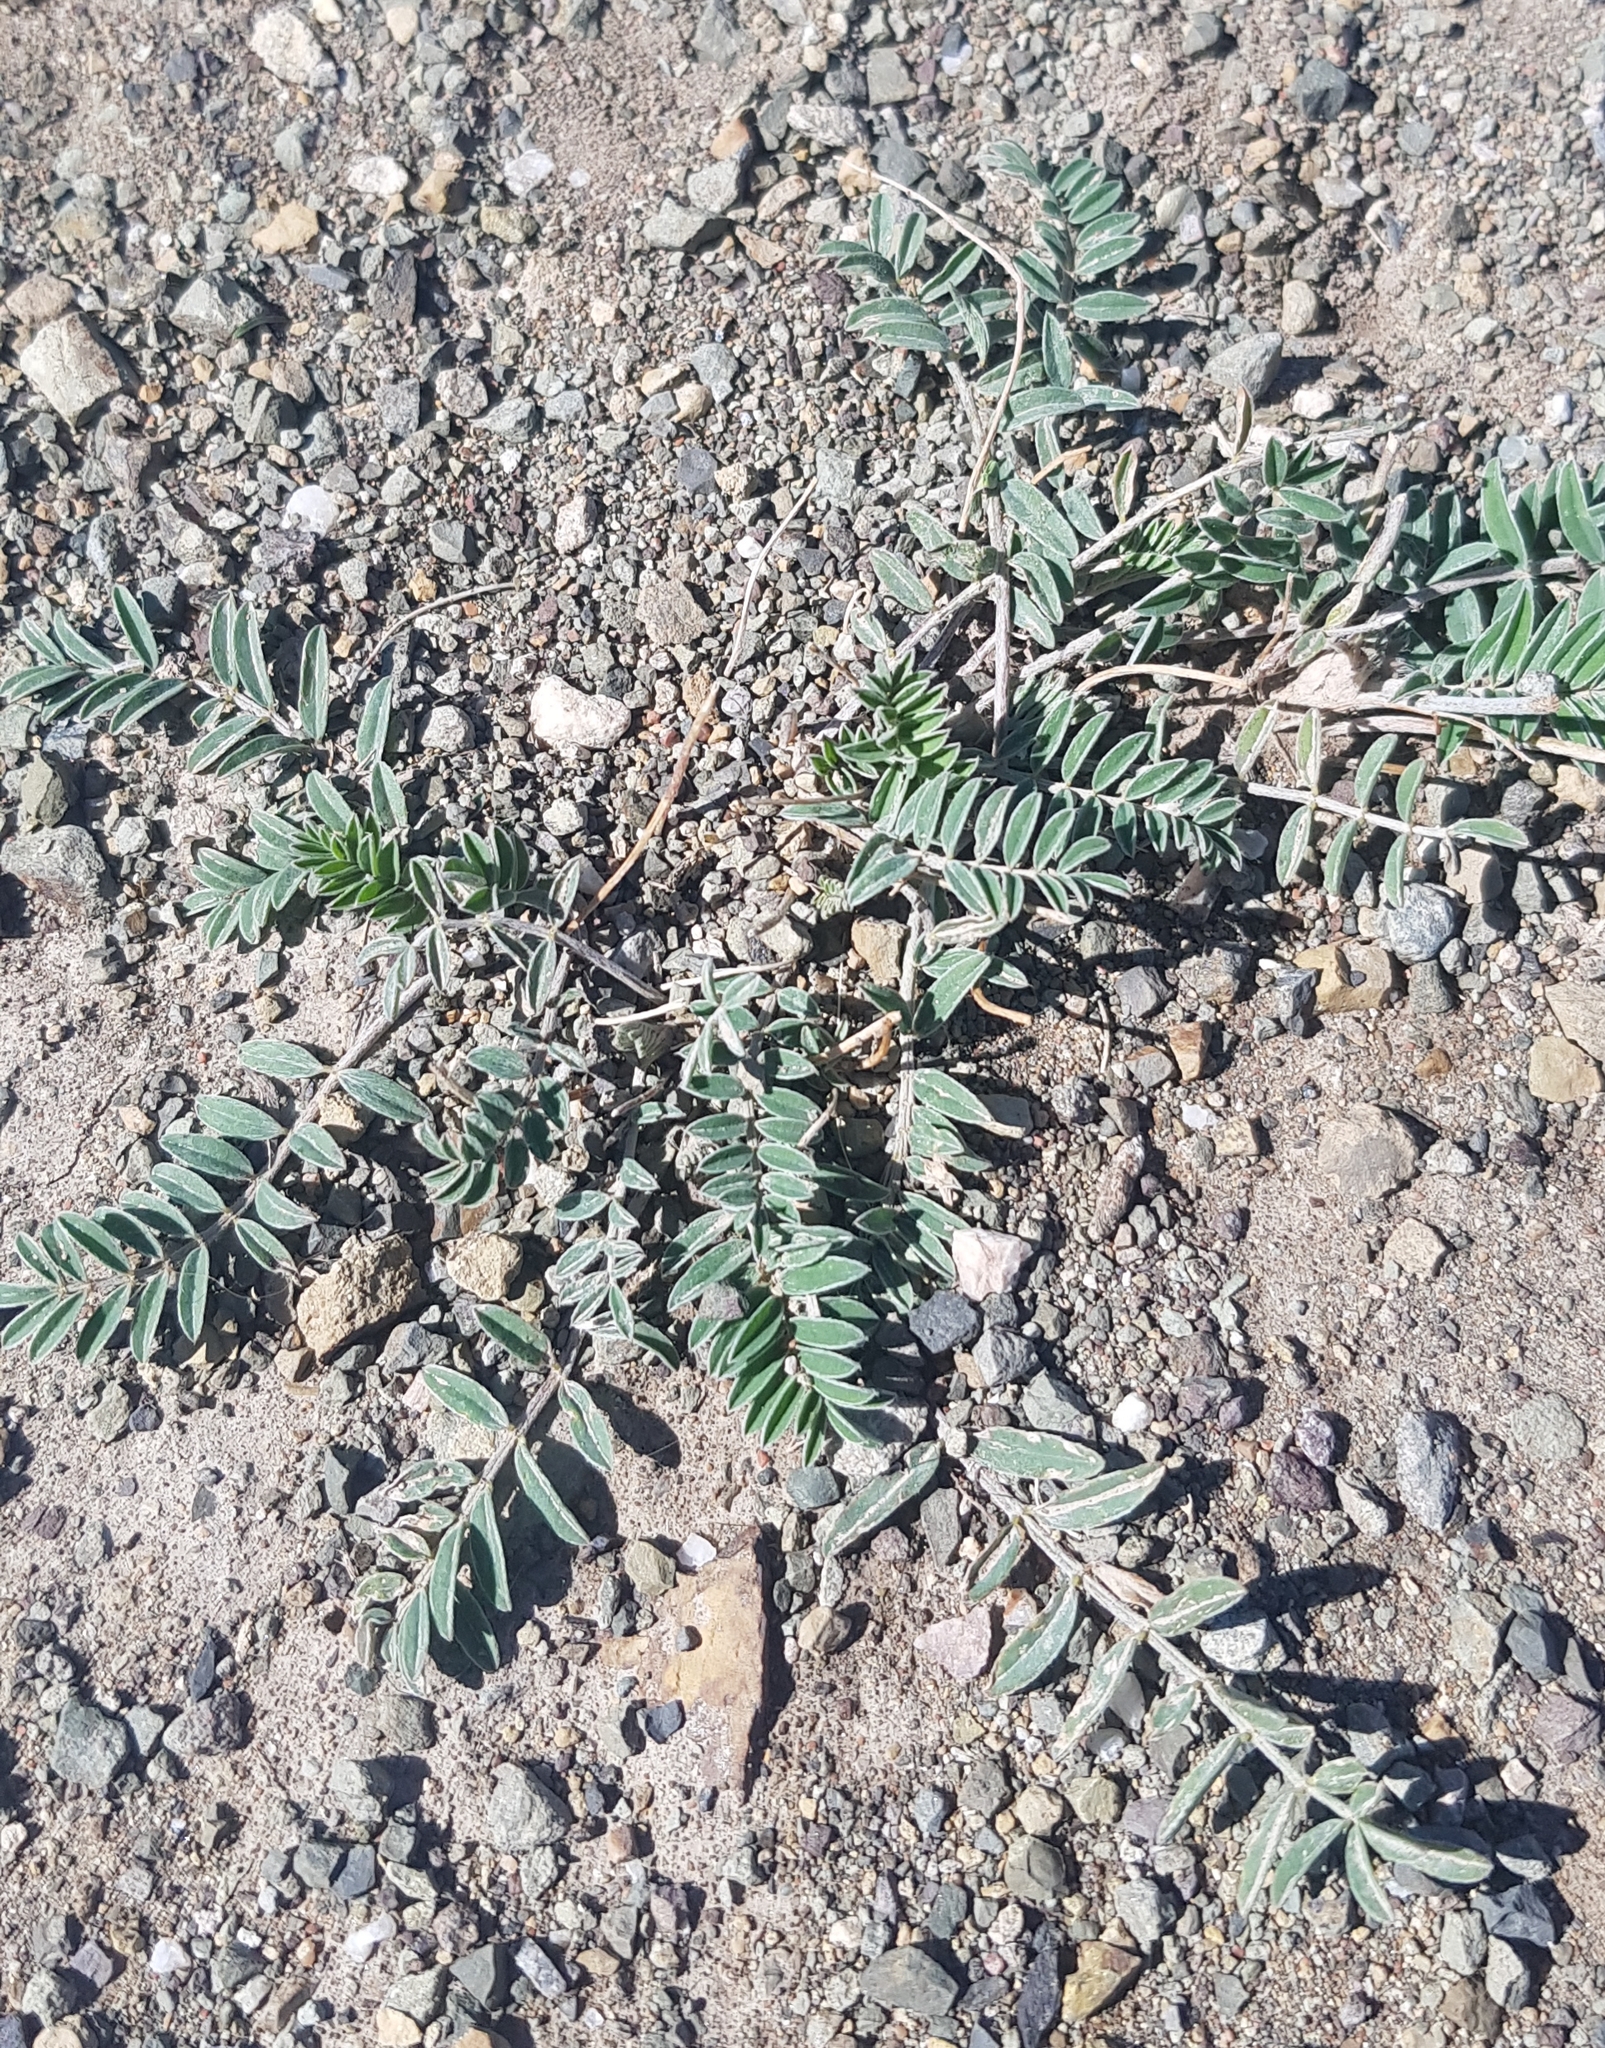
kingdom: Plantae
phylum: Tracheophyta
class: Magnoliopsida
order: Zygophyllales
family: Zygophyllaceae
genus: Tribulus
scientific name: Tribulus terrestris
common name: Puncturevine
